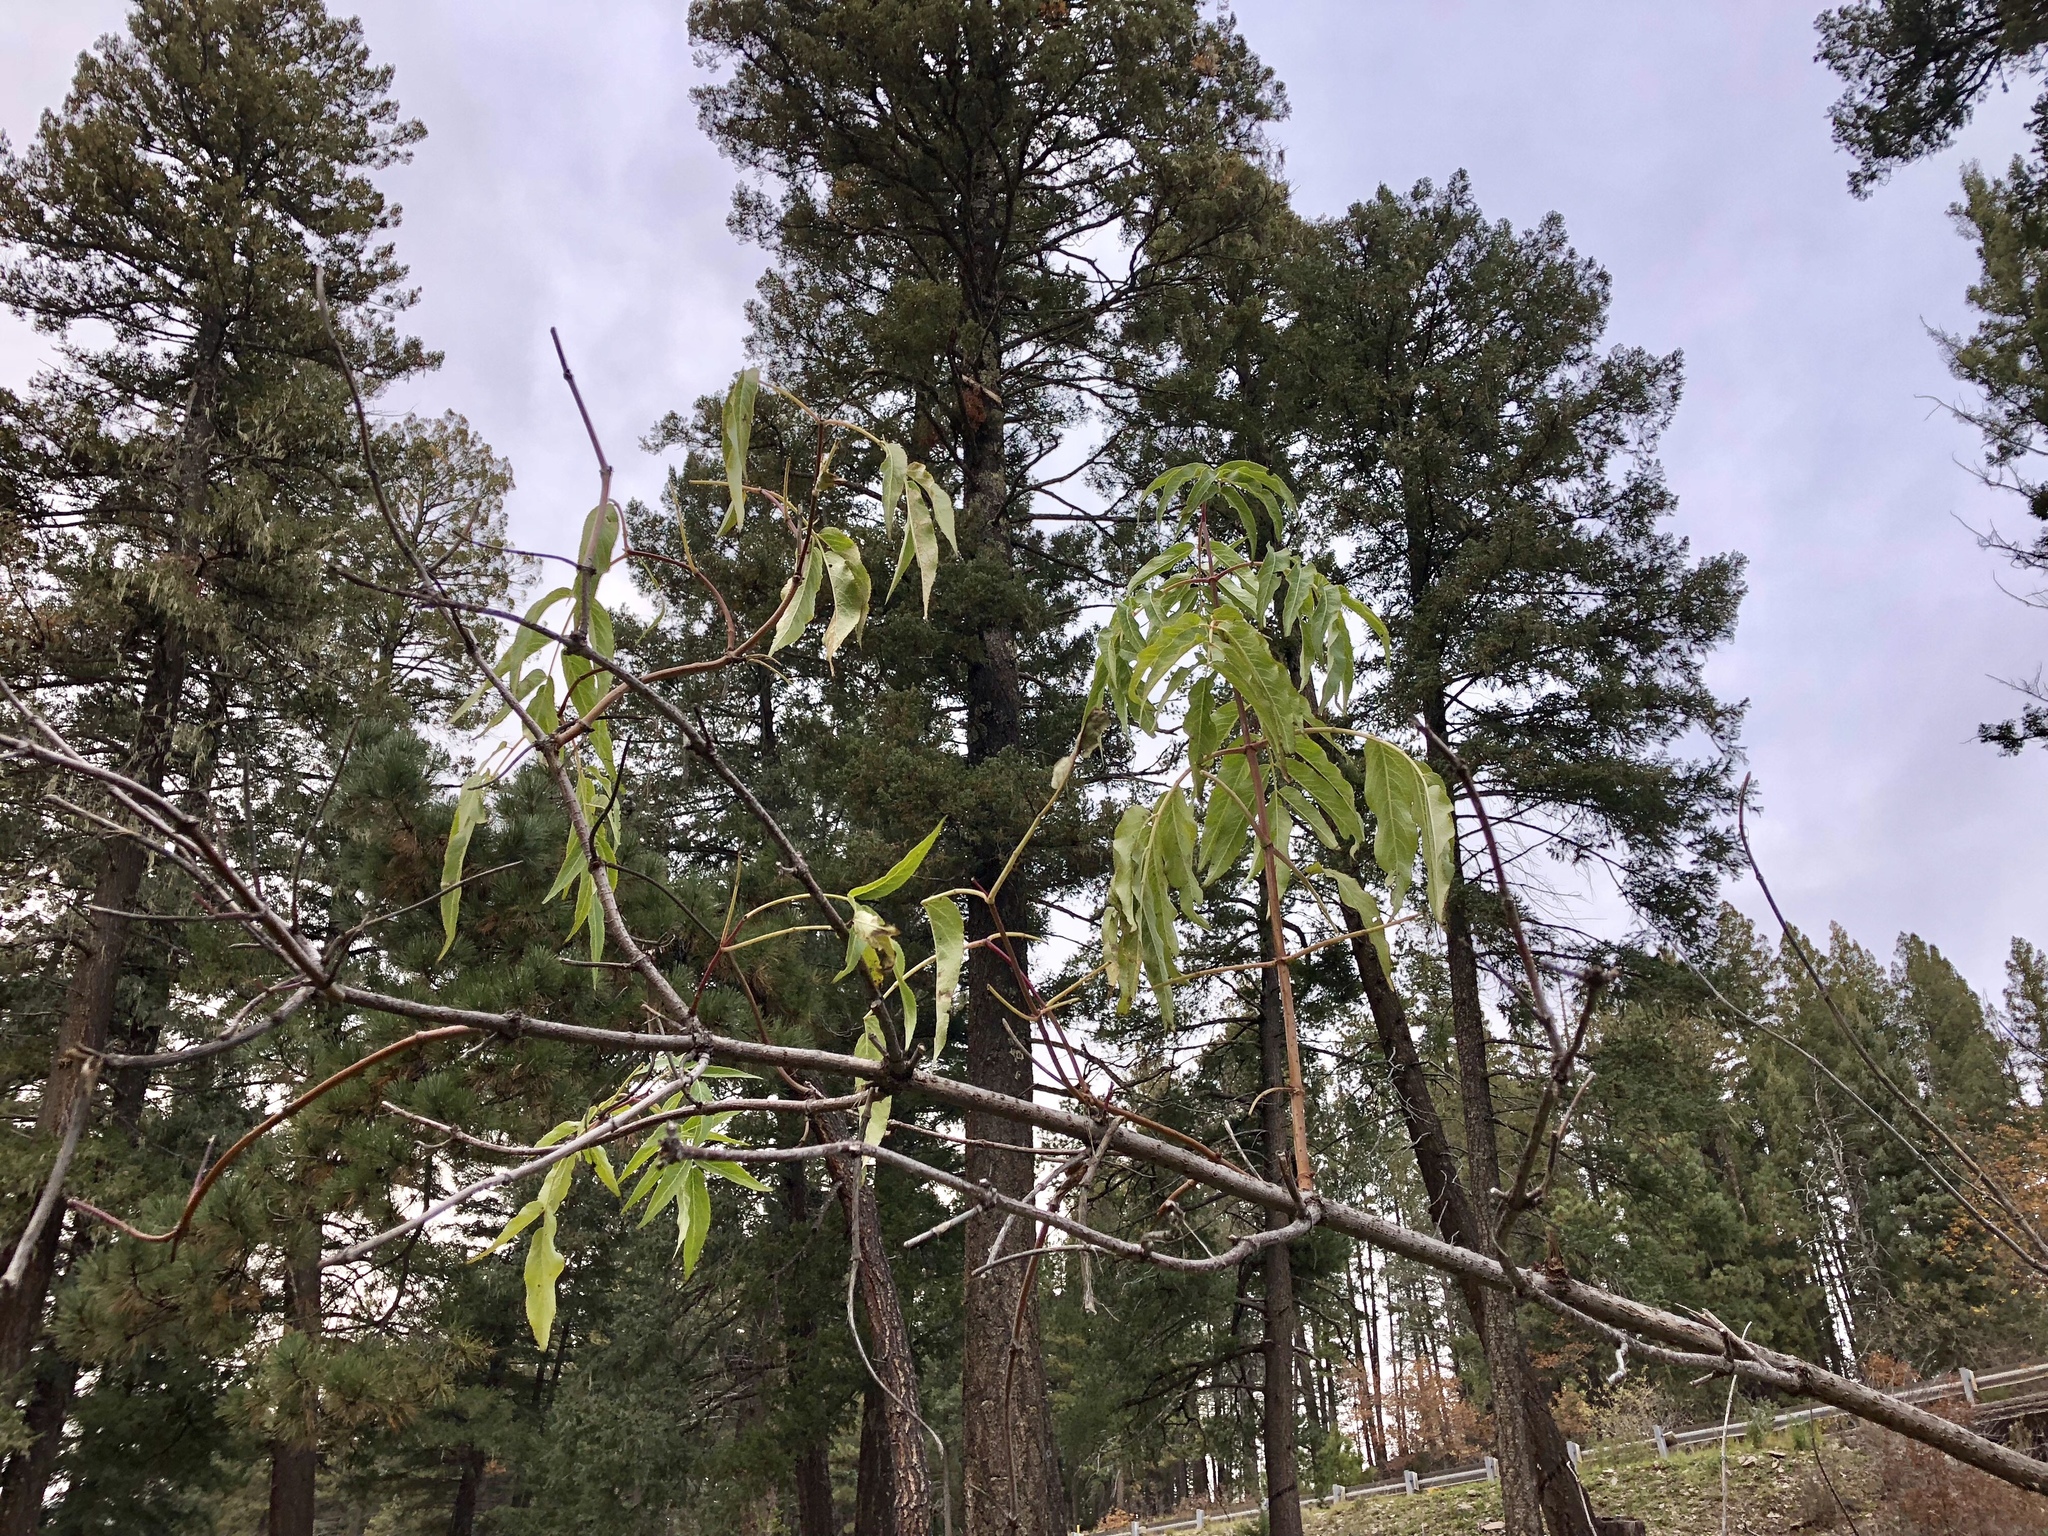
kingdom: Plantae
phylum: Tracheophyta
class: Magnoliopsida
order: Dipsacales
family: Viburnaceae
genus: Sambucus
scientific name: Sambucus cerulea
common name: Blue elder
